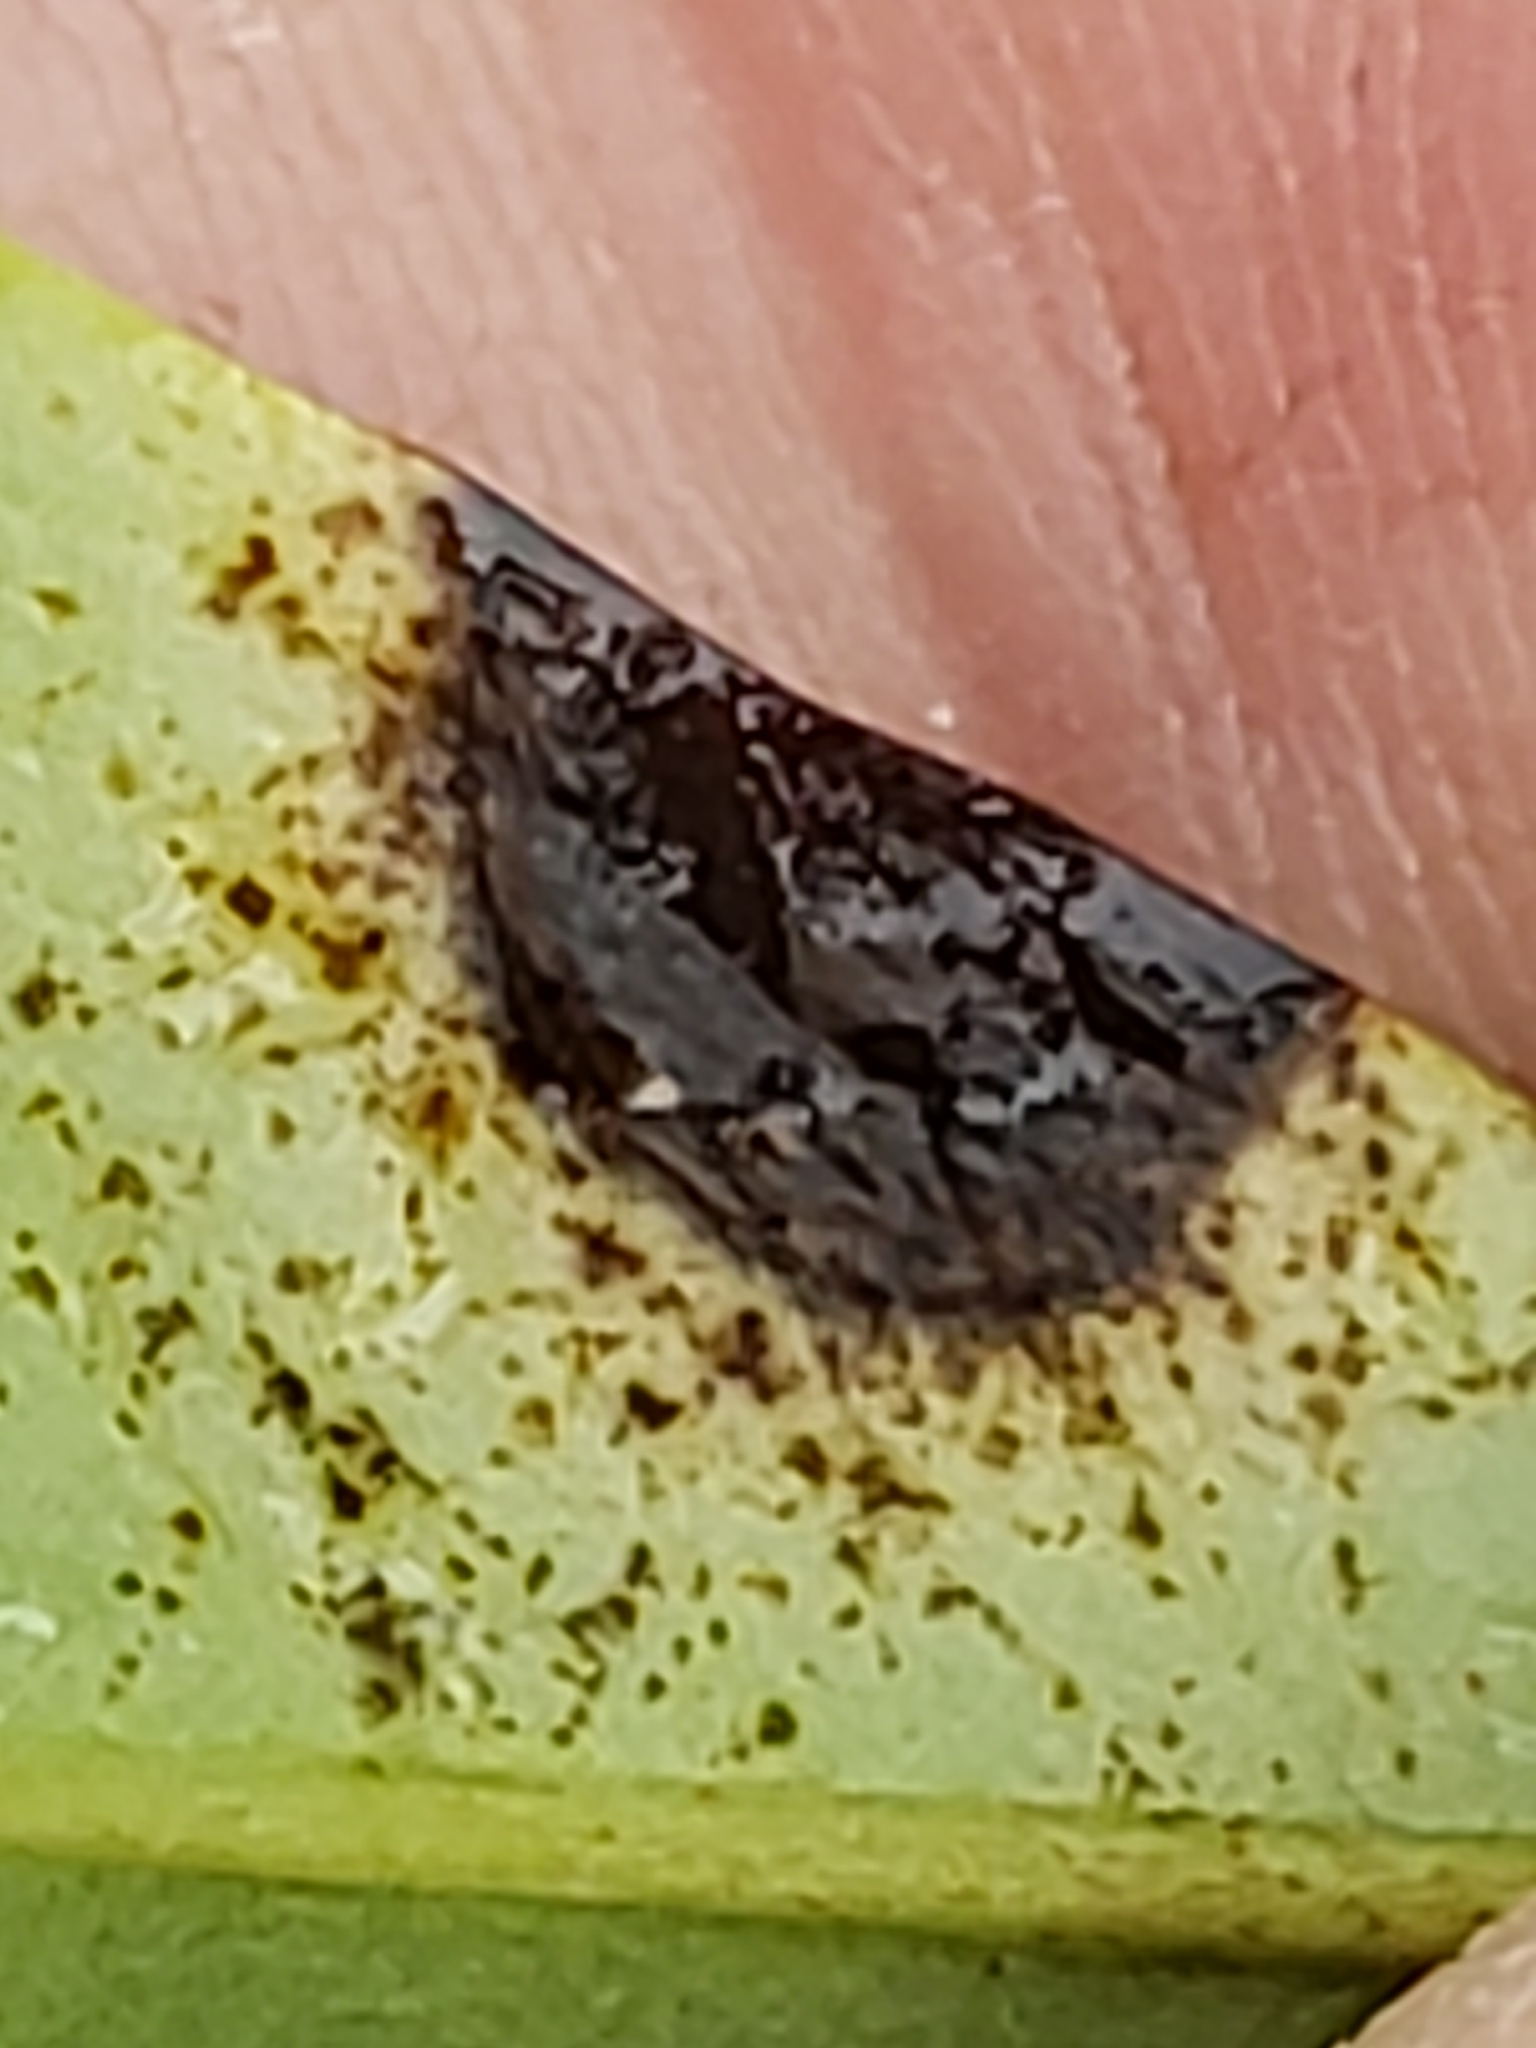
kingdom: Plantae
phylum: Tracheophyta
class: Magnoliopsida
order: Magnoliales
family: Magnoliaceae
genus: Magnolia
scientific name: Magnolia figo
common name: Banana shrub
